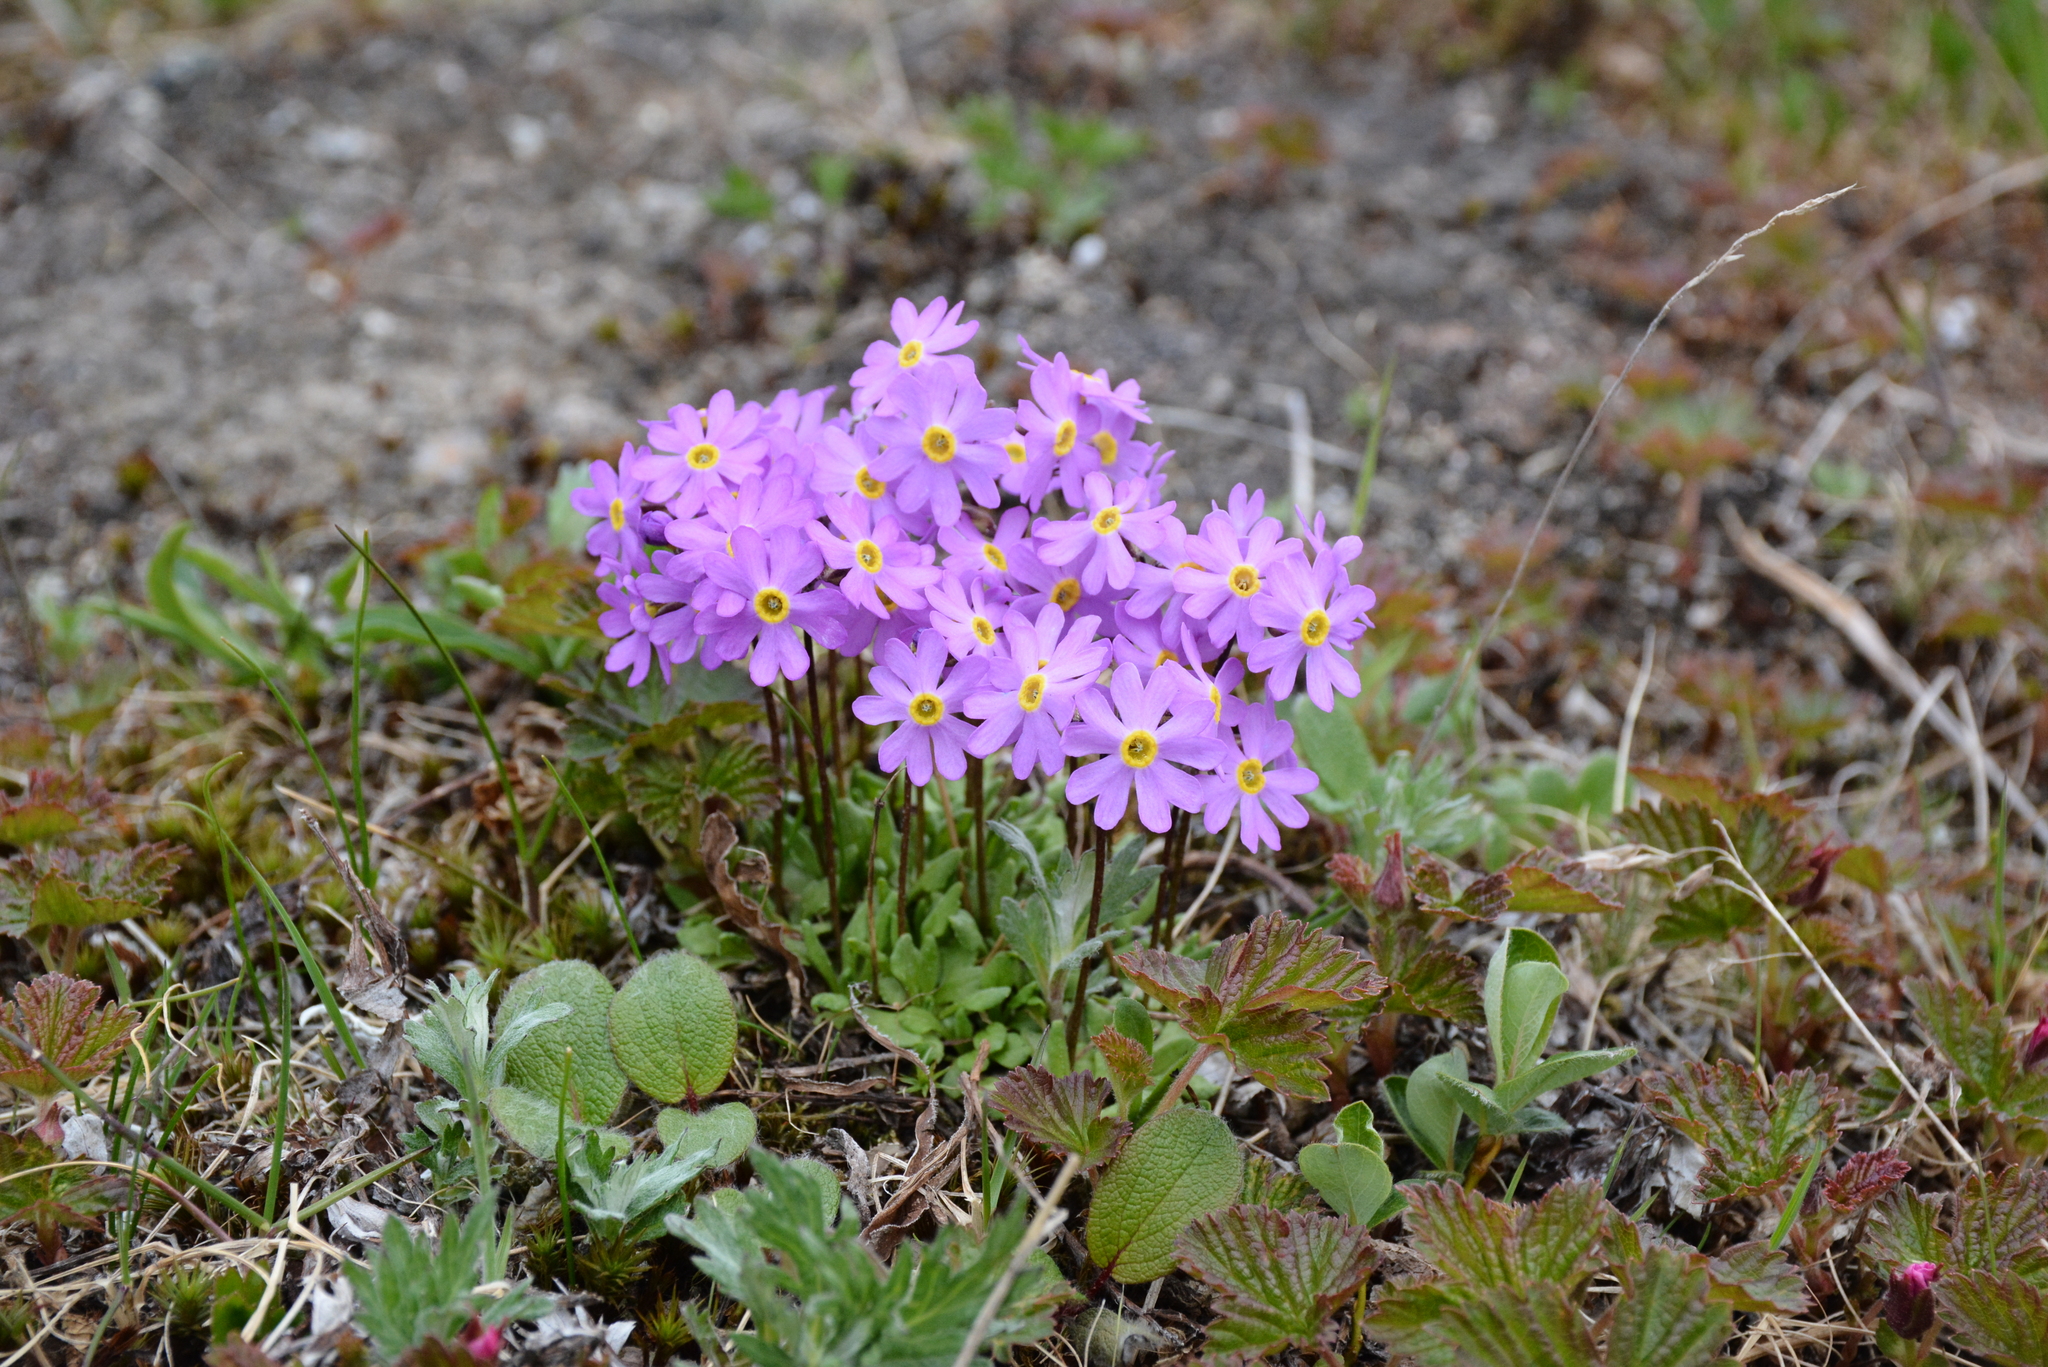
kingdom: Plantae
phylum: Tracheophyta
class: Magnoliopsida
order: Ericales
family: Primulaceae
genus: Primula
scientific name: Primula borealis
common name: Northern primrose
